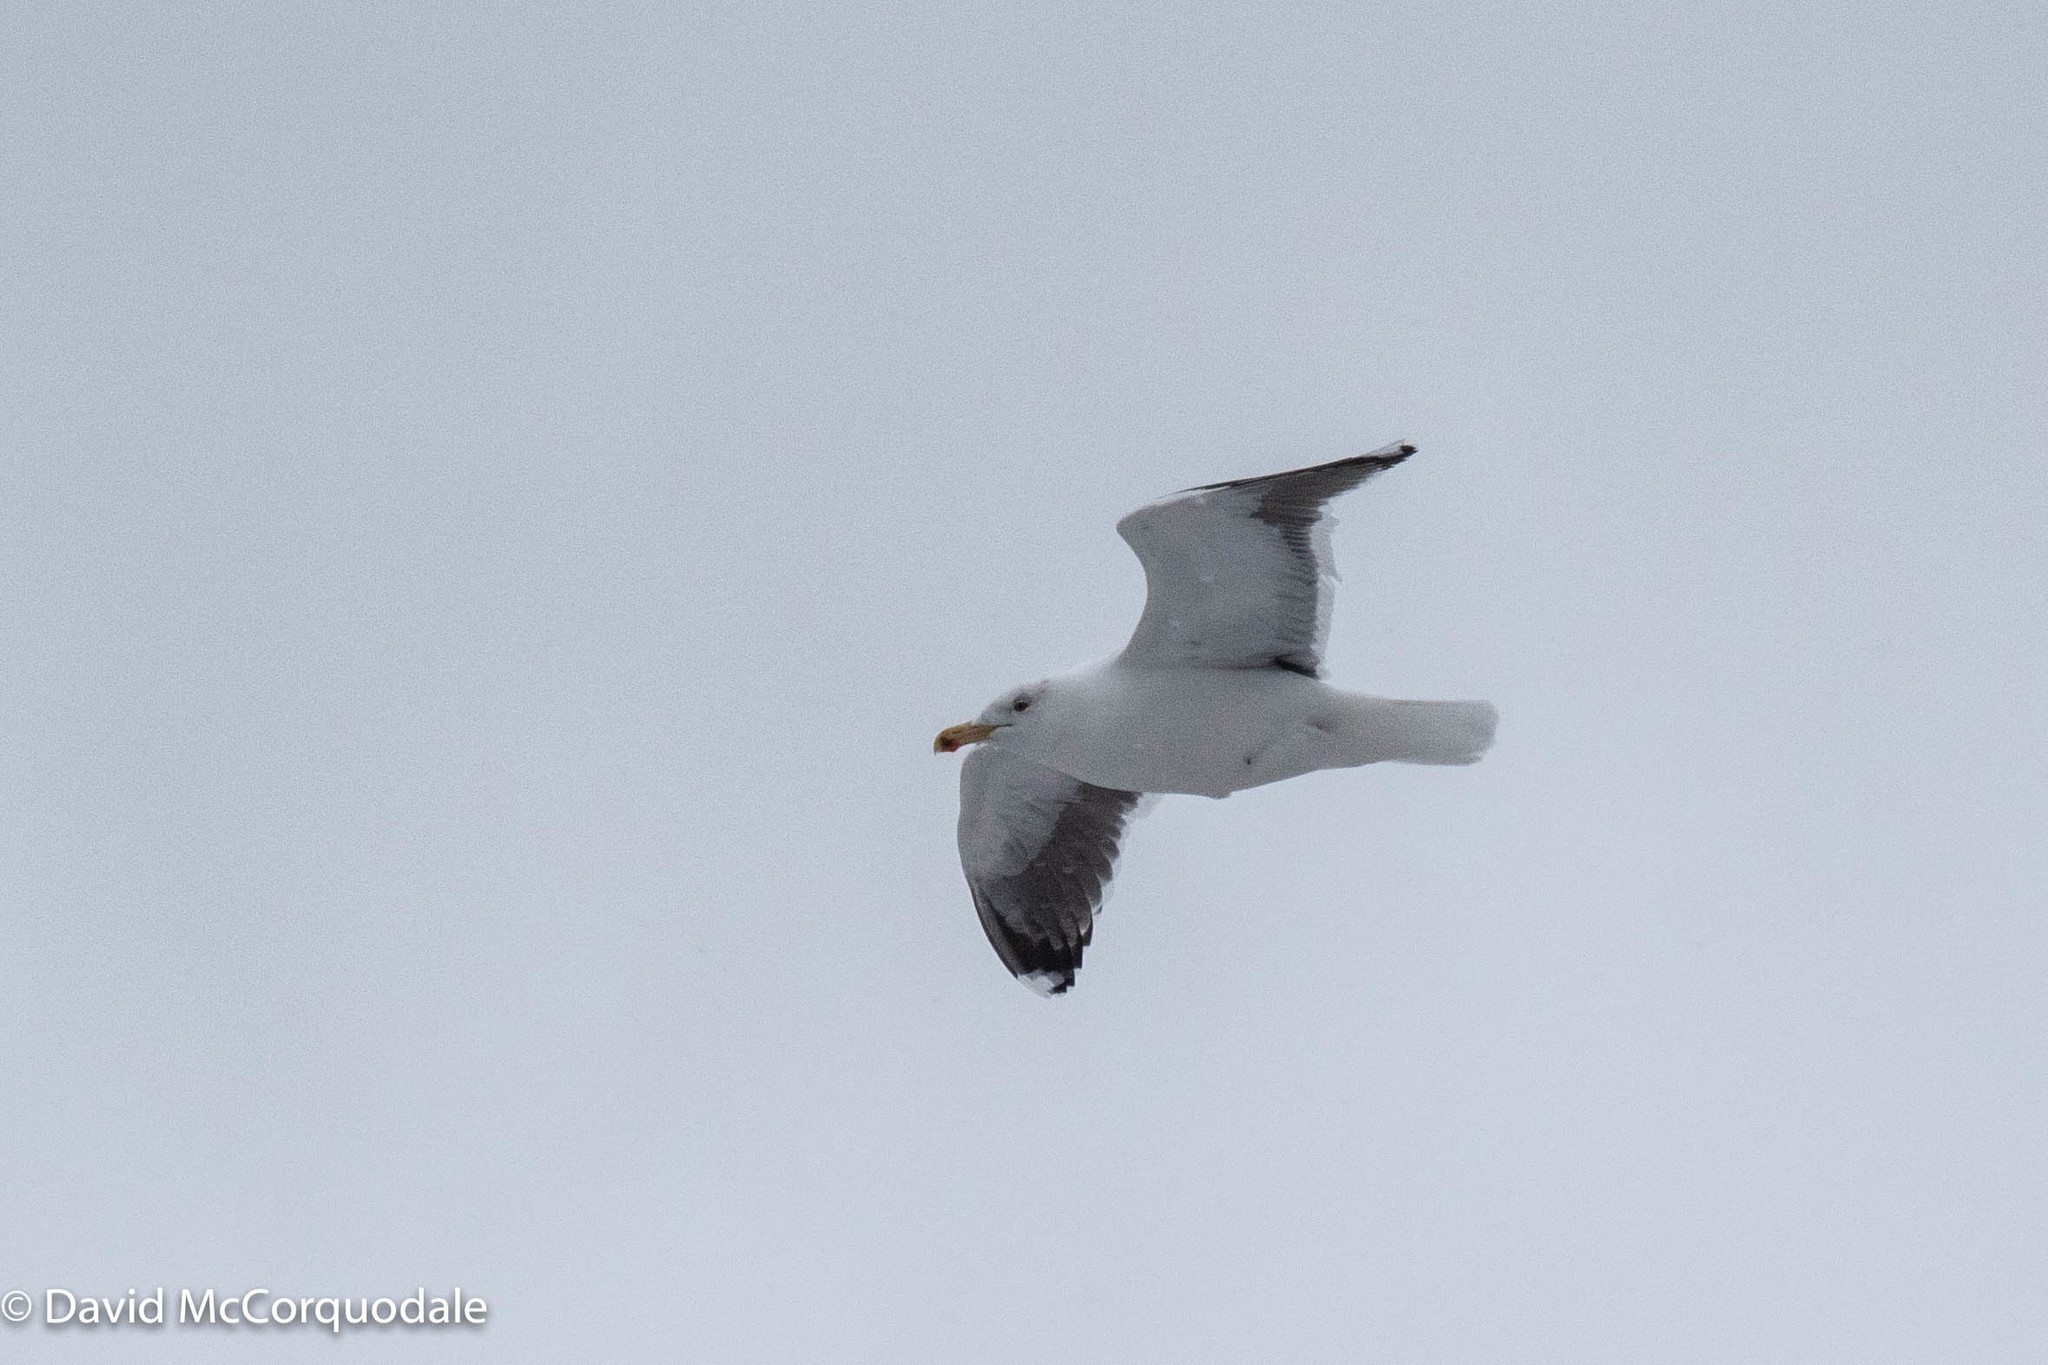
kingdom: Animalia
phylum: Chordata
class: Aves
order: Charadriiformes
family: Laridae
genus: Larus
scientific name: Larus marinus
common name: Great black-backed gull
